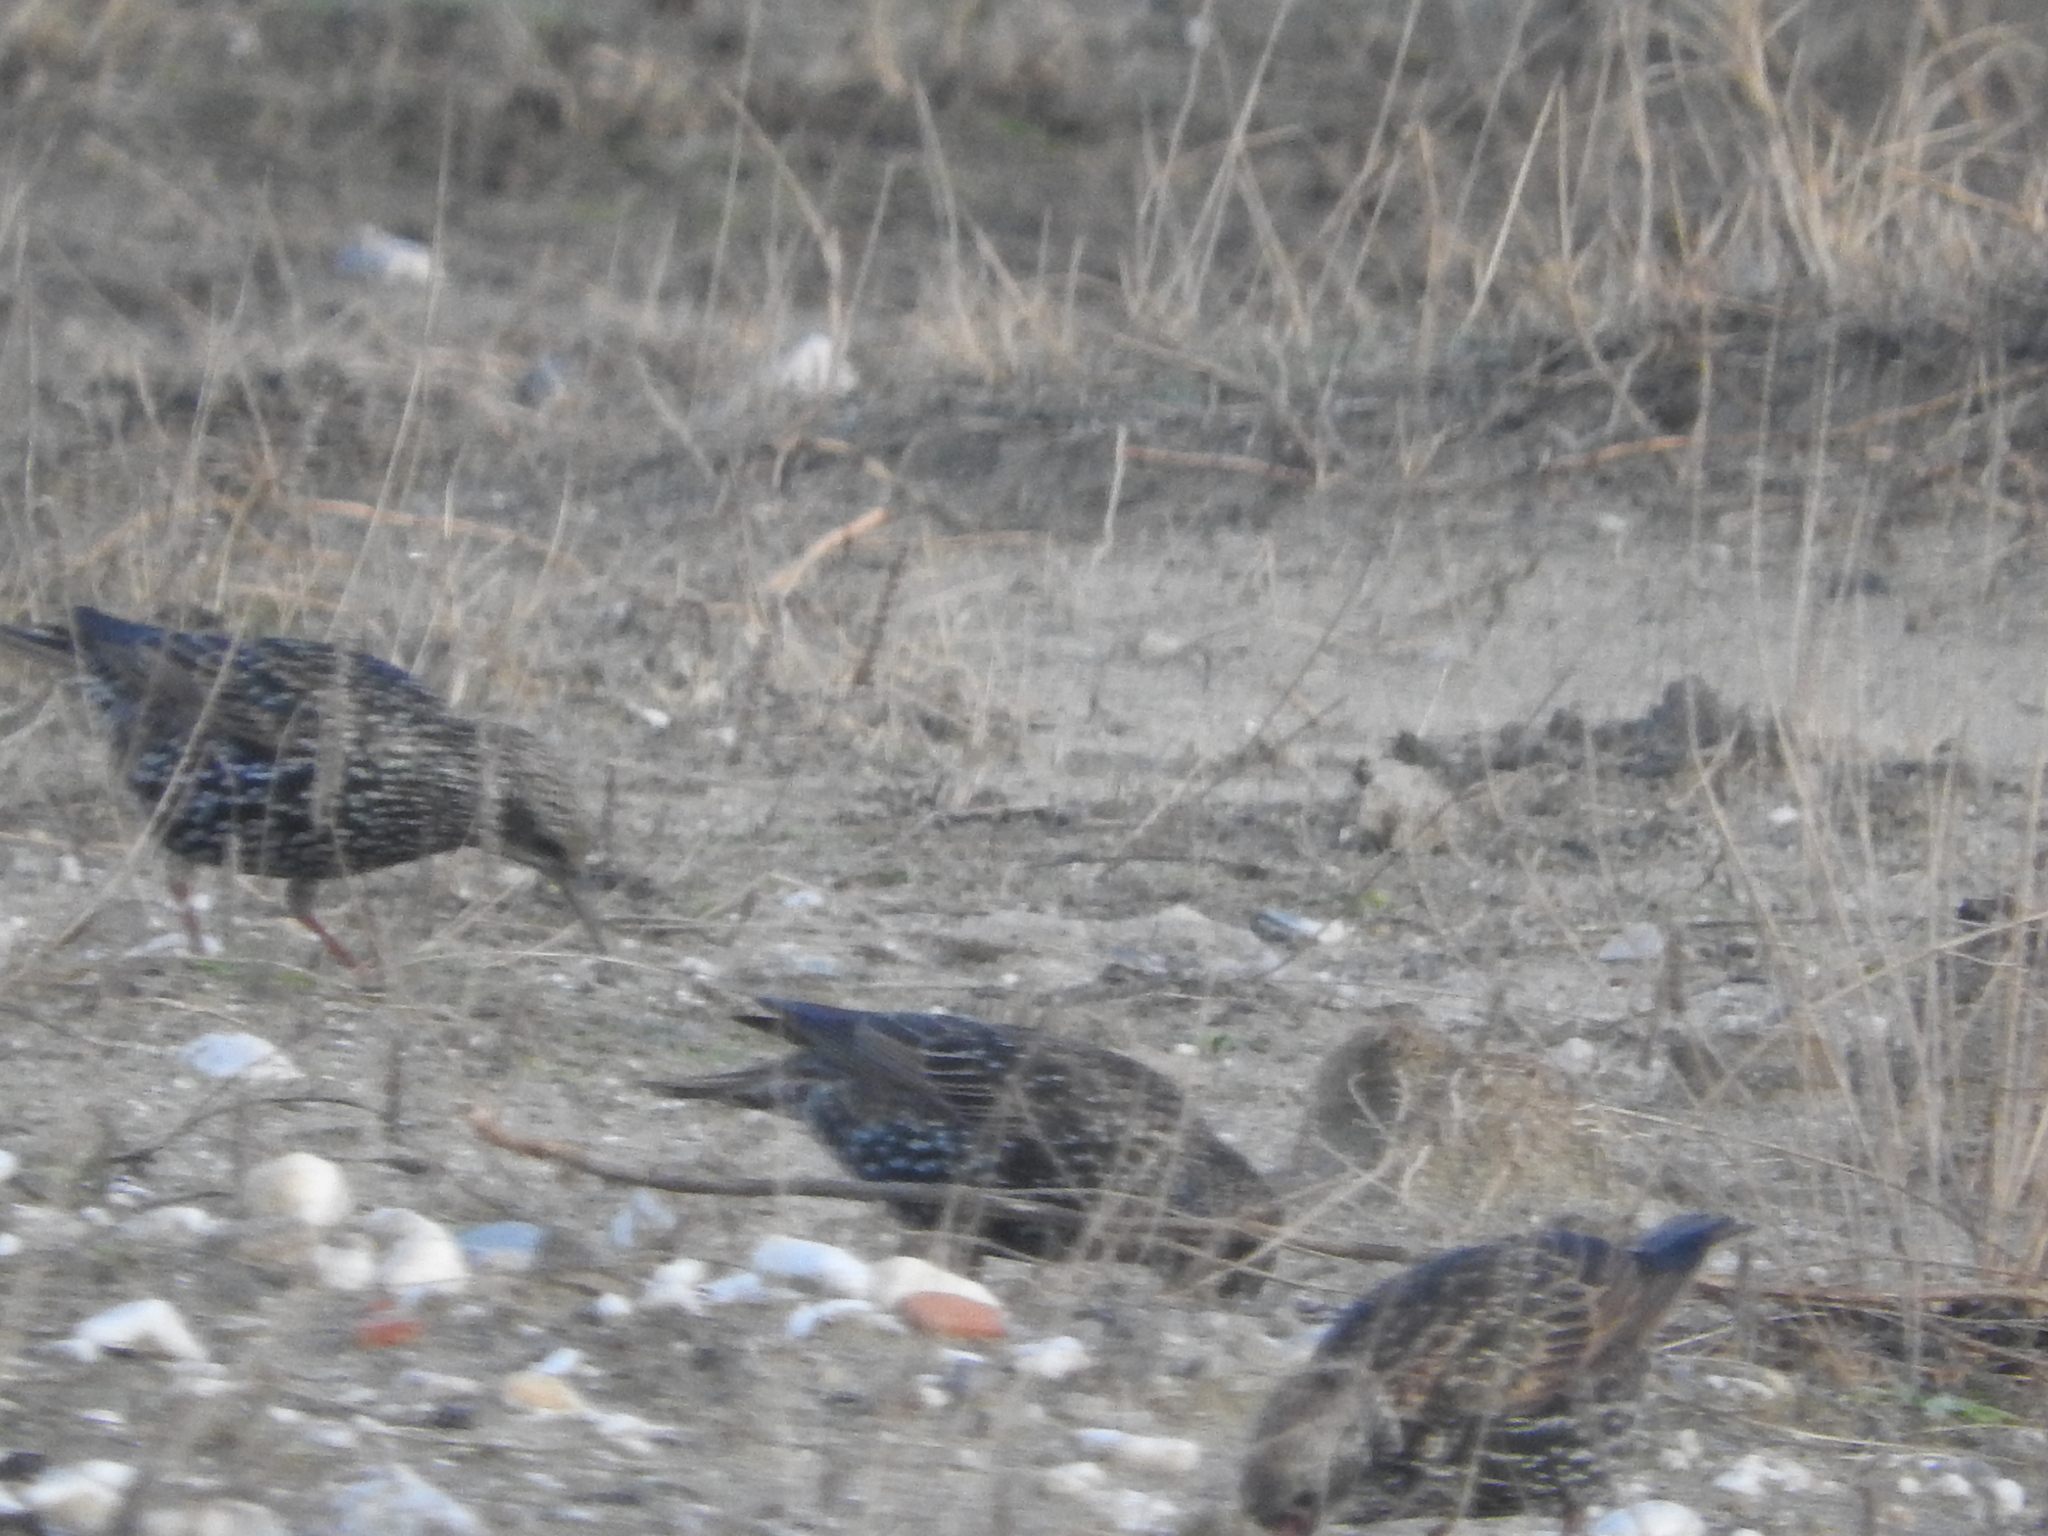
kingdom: Animalia
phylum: Chordata
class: Aves
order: Passeriformes
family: Sturnidae
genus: Sturnus
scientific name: Sturnus vulgaris
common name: Common starling
